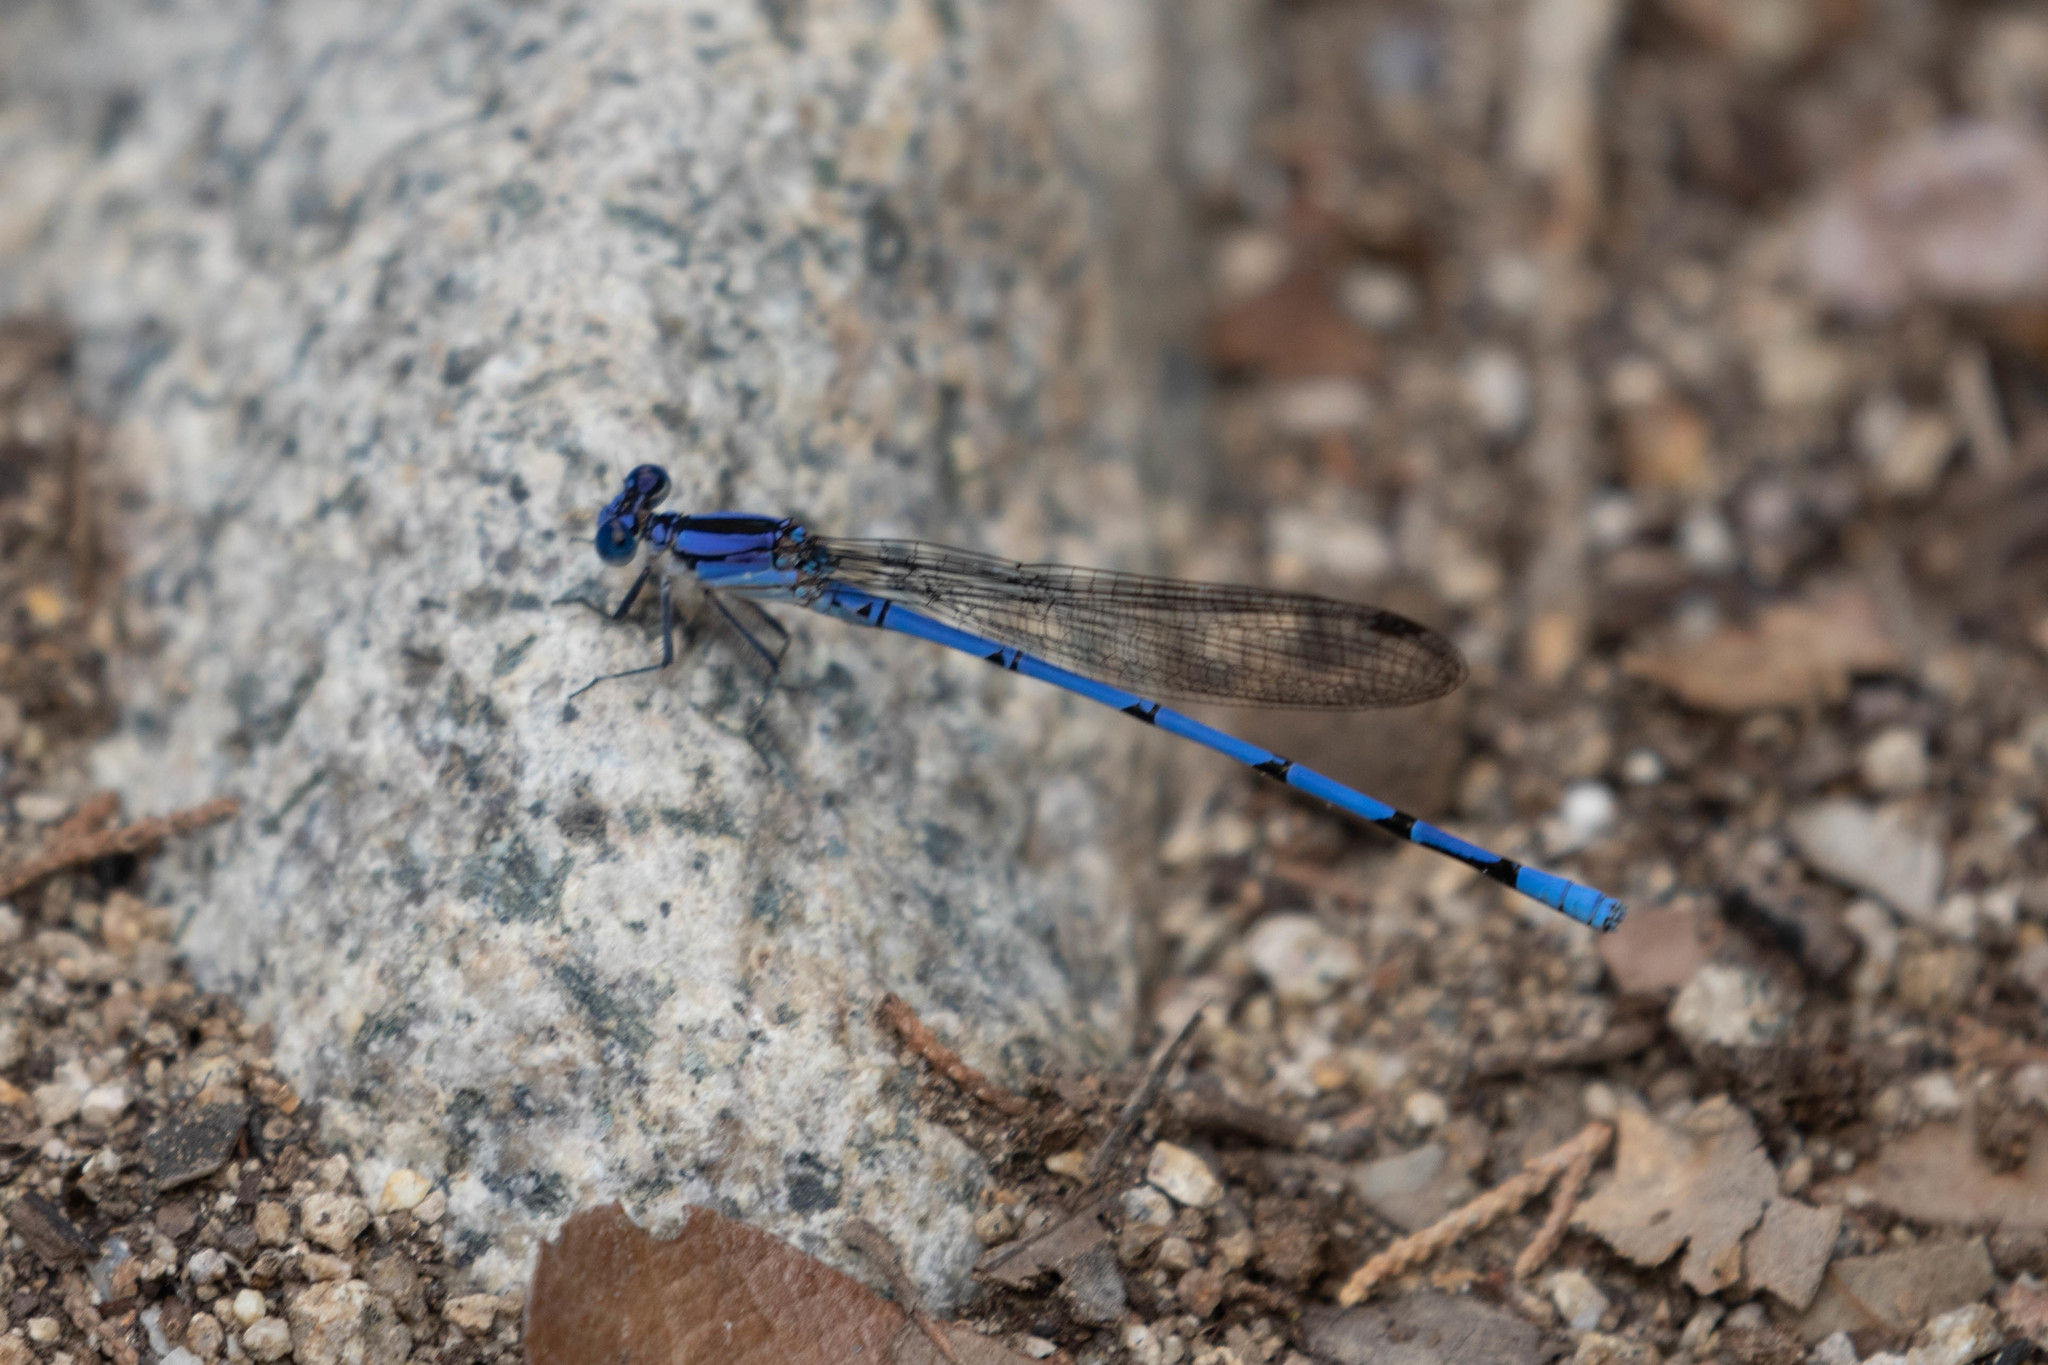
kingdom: Animalia
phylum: Arthropoda
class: Insecta
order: Odonata
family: Coenagrionidae
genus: Argia
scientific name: Argia lacrimans
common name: Sierra madre dancer
